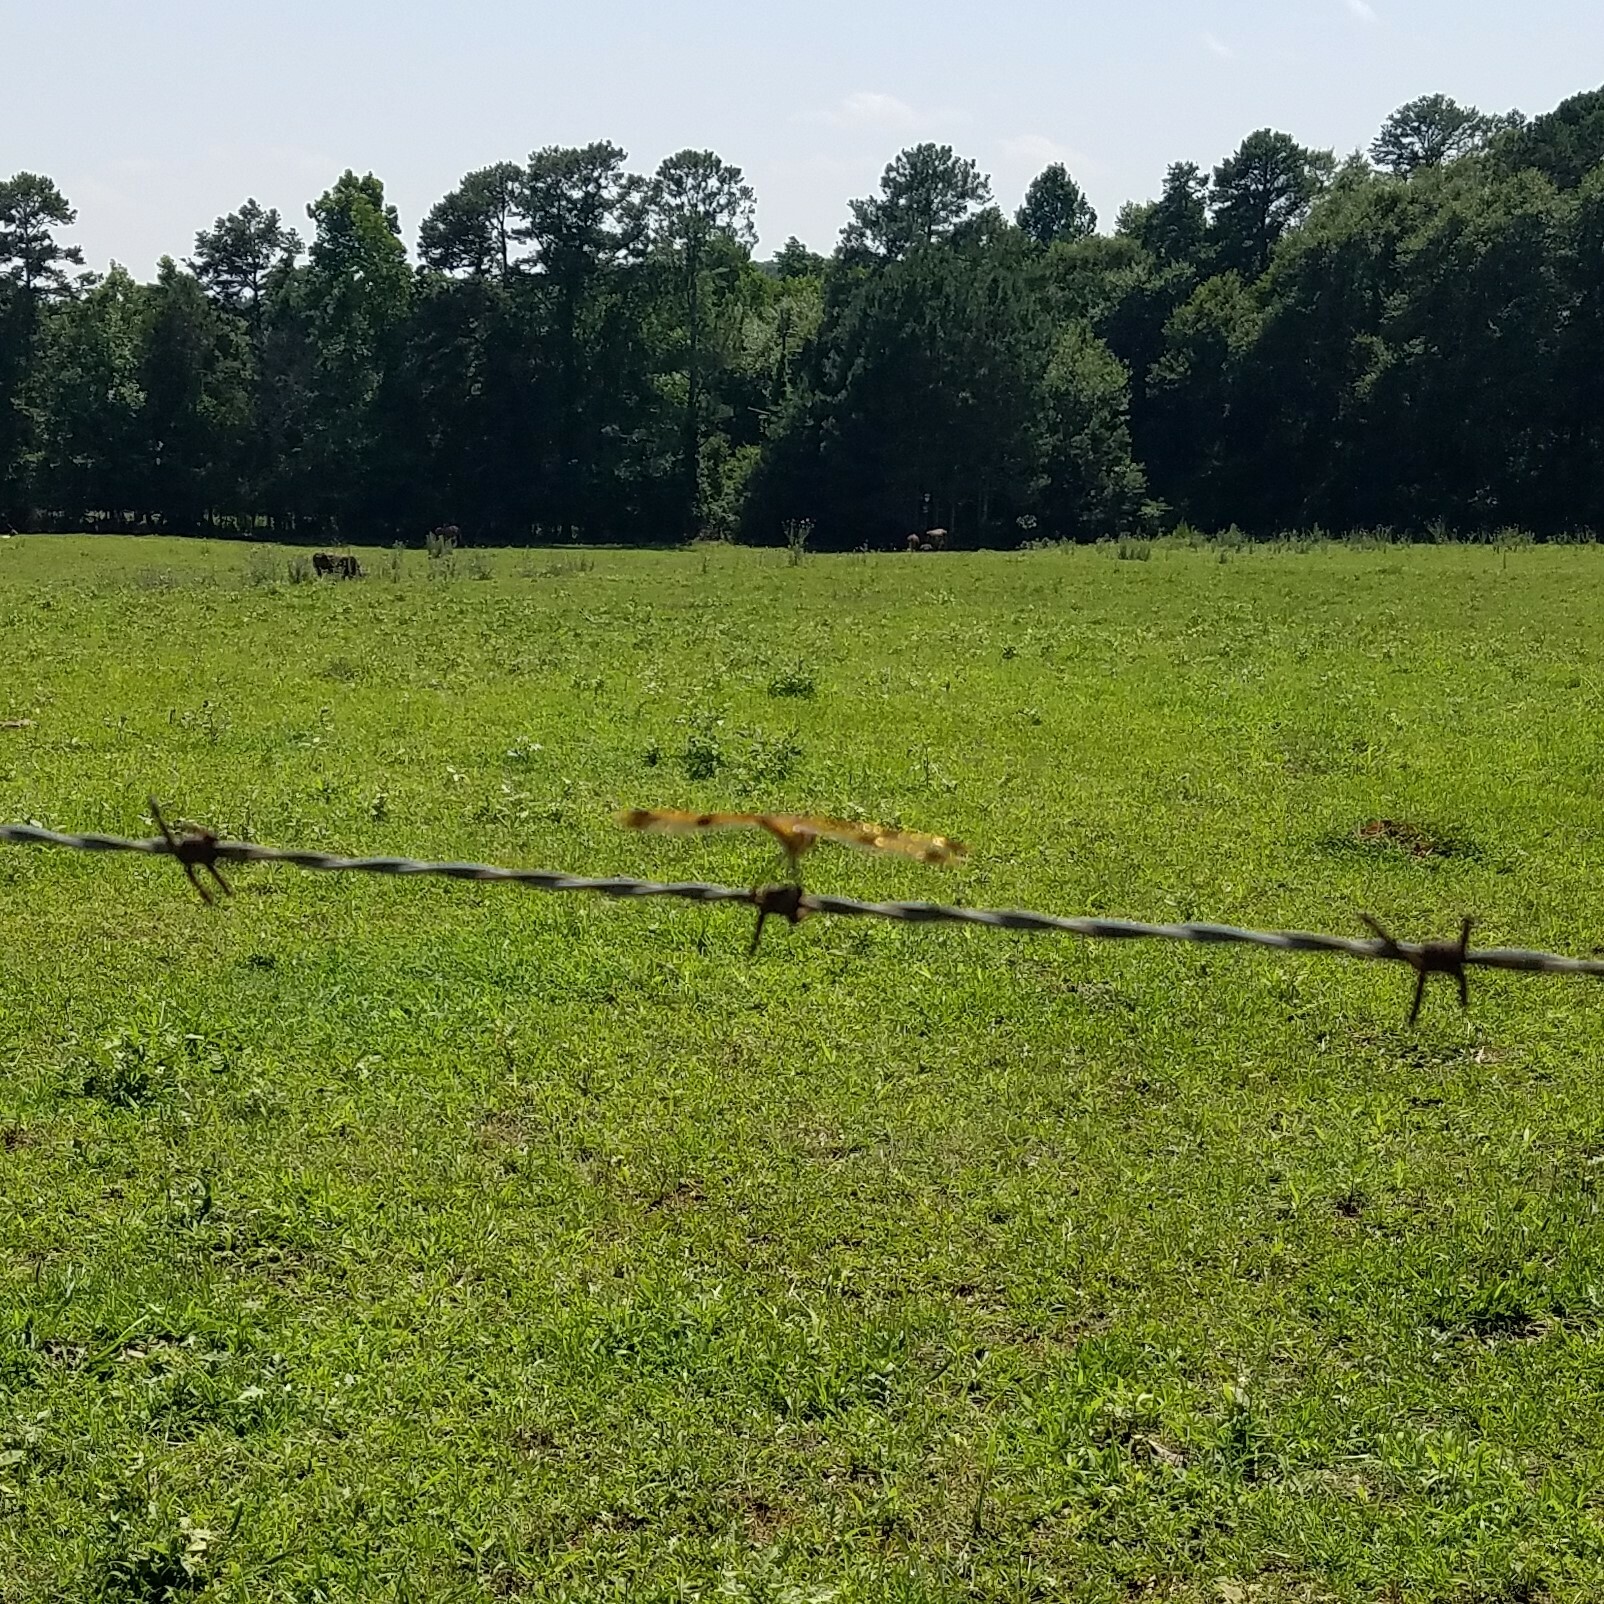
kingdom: Animalia
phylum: Arthropoda
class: Insecta
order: Odonata
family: Libellulidae
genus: Celithemis
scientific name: Celithemis eponina
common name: Halloween pennant
